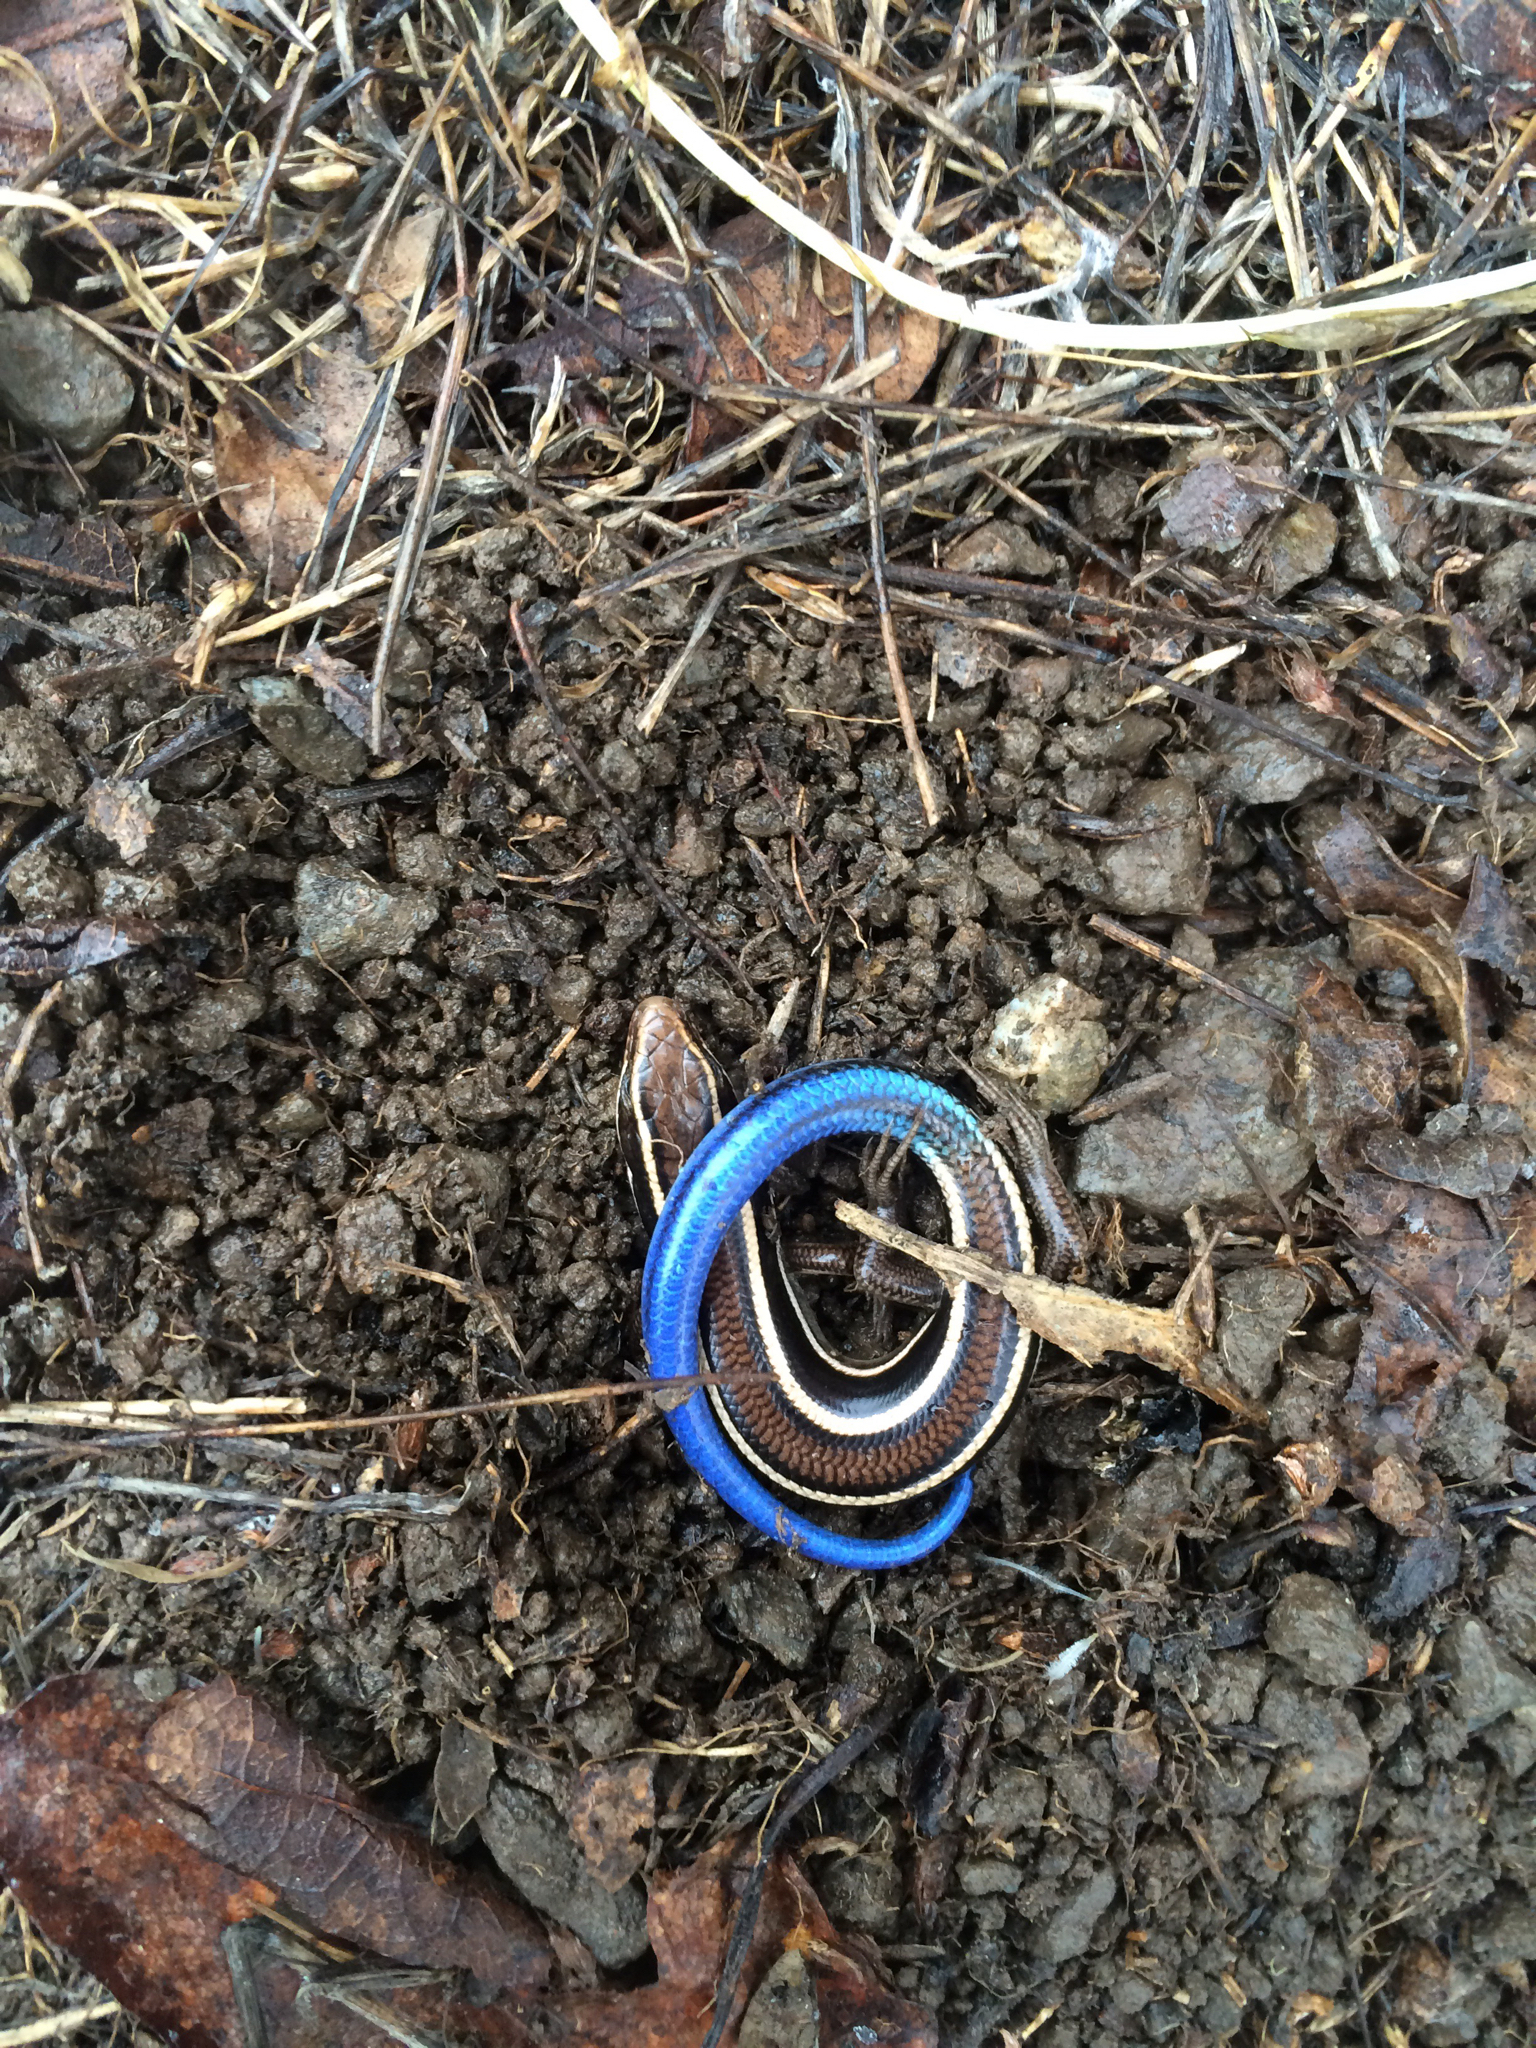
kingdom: Animalia
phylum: Chordata
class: Squamata
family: Scincidae
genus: Plestiodon
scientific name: Plestiodon skiltonianus
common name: Coronado island skink [interparietalis]
